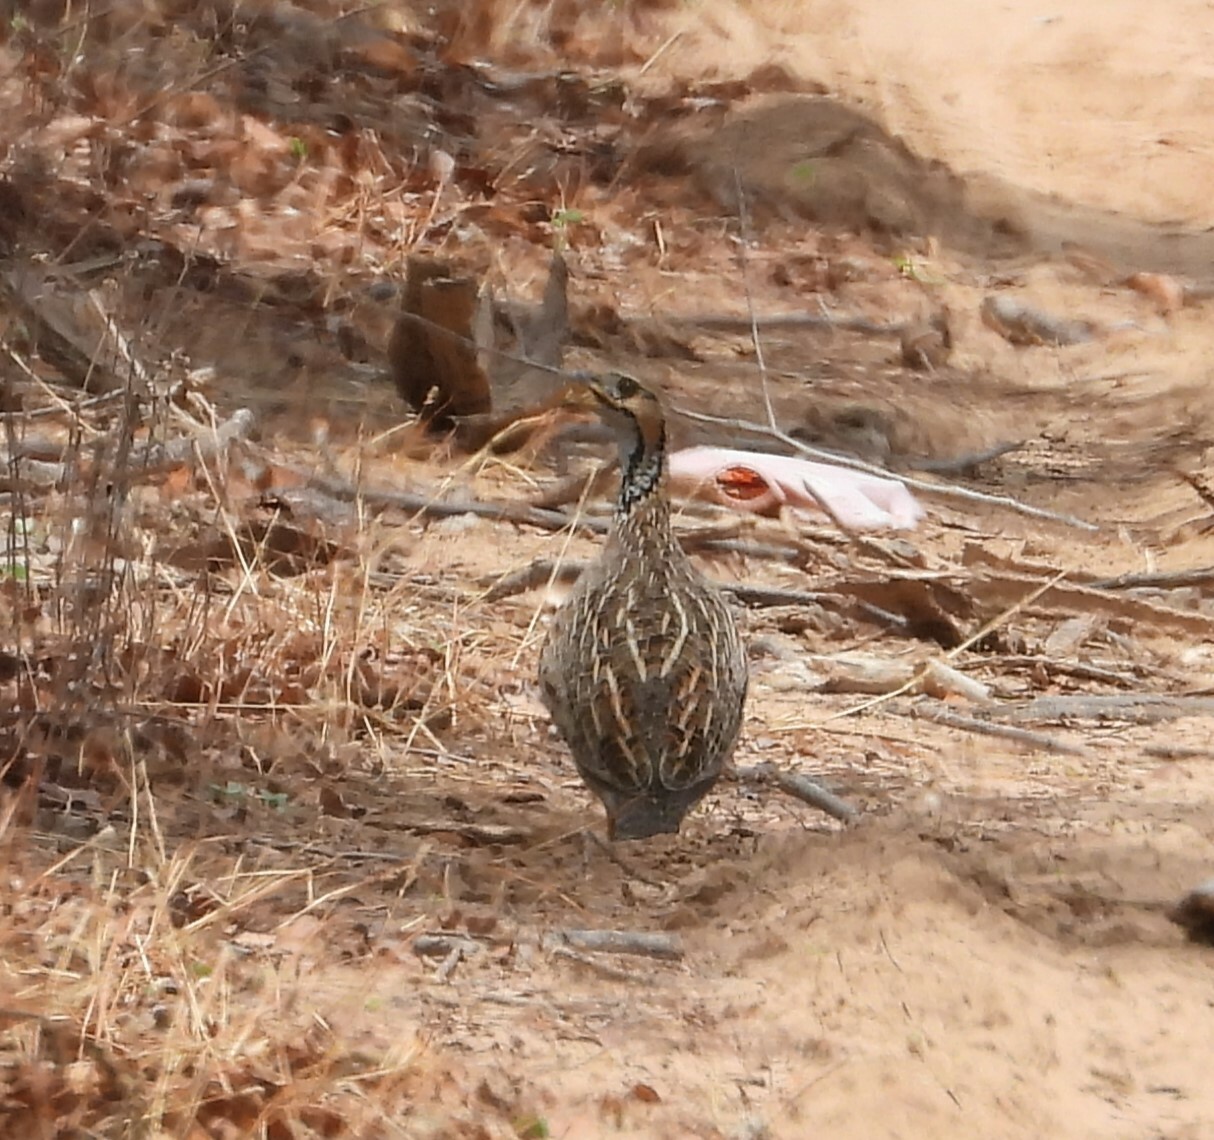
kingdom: Animalia
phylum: Chordata
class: Aves
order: Galliformes
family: Phasianidae
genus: Scleroptila
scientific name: Scleroptila shelleyi
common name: Shelley's francolin
